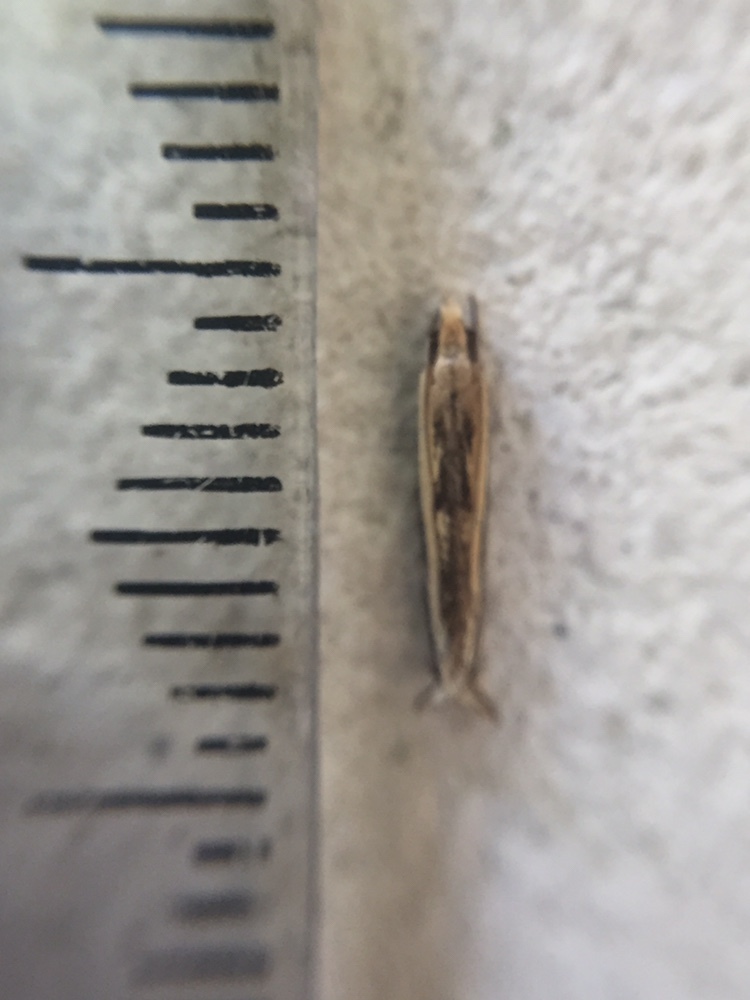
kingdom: Animalia
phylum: Arthropoda
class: Insecta
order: Lepidoptera
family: Tineidae
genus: Erechthias
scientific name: Erechthias terminella
